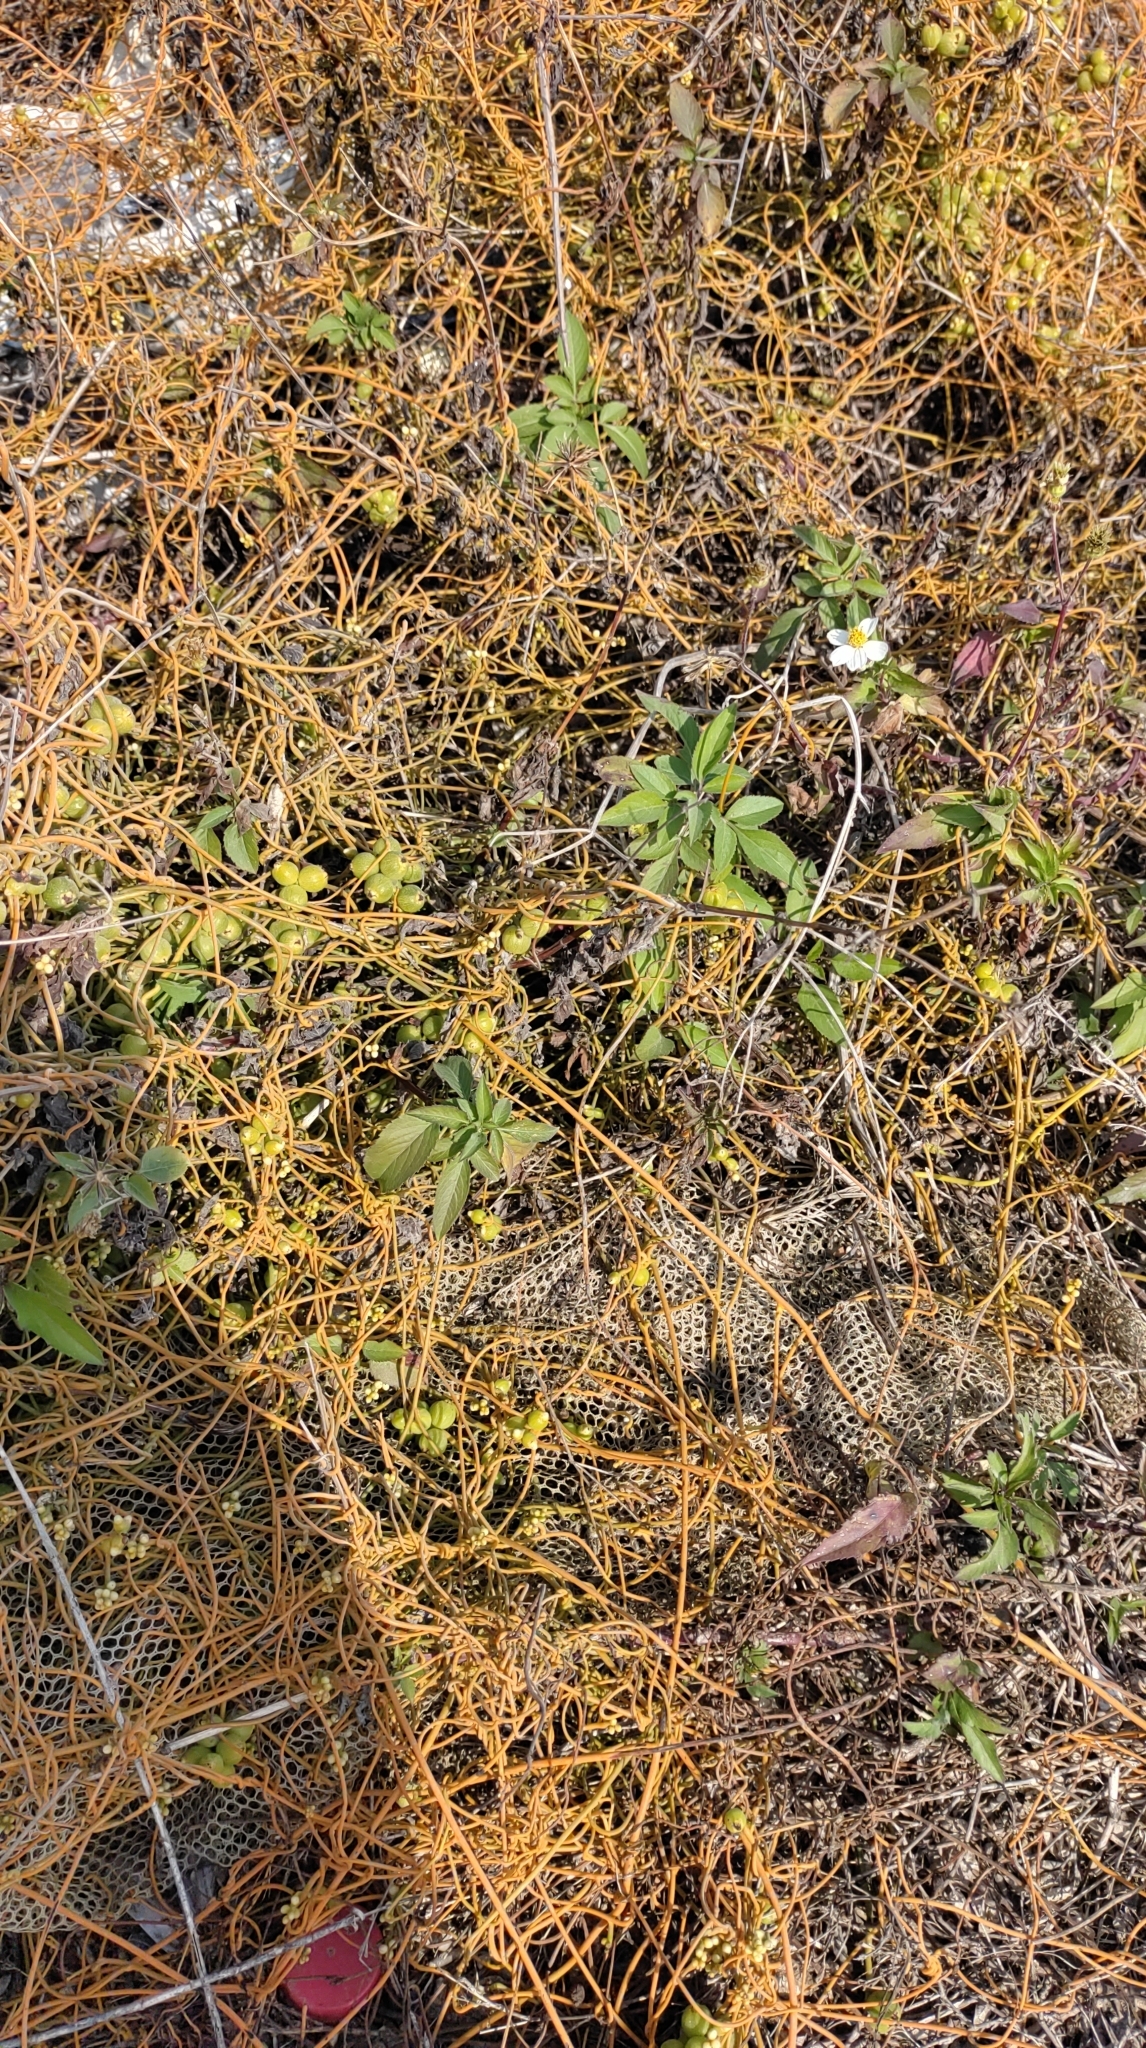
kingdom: Plantae
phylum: Tracheophyta
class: Magnoliopsida
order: Laurales
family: Lauraceae
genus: Cassytha
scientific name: Cassytha filiformis
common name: Dodder-laurel
